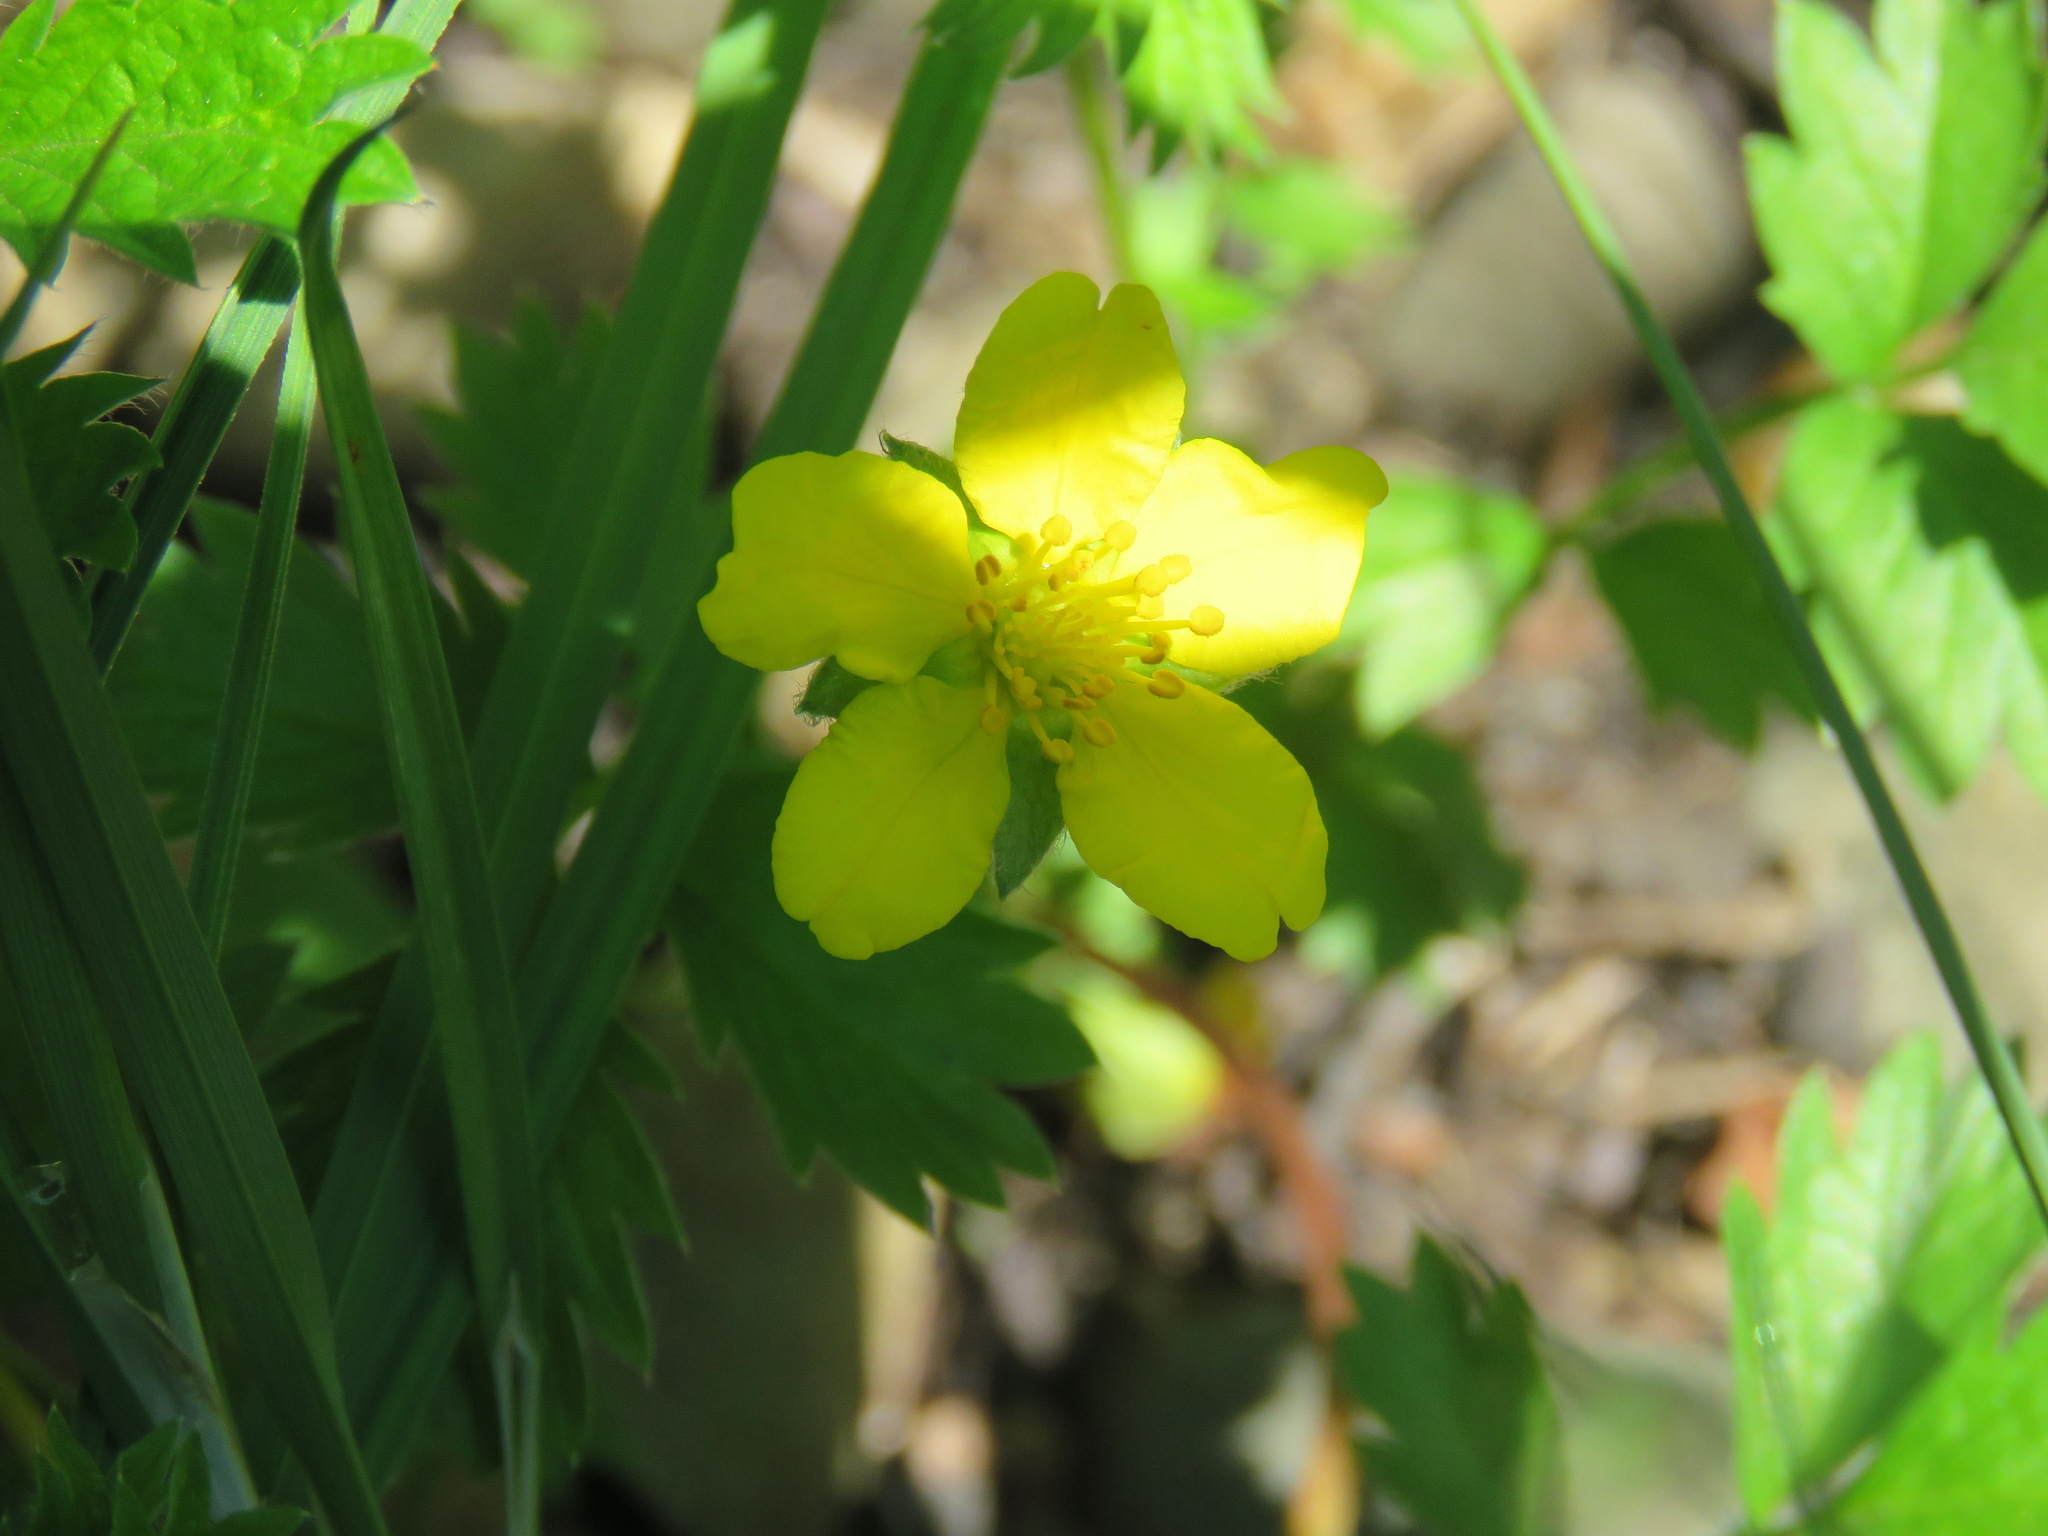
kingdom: Plantae
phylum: Tracheophyta
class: Magnoliopsida
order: Rosales
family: Rosaceae
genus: Argentina
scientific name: Argentina anserina
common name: Common silverweed
